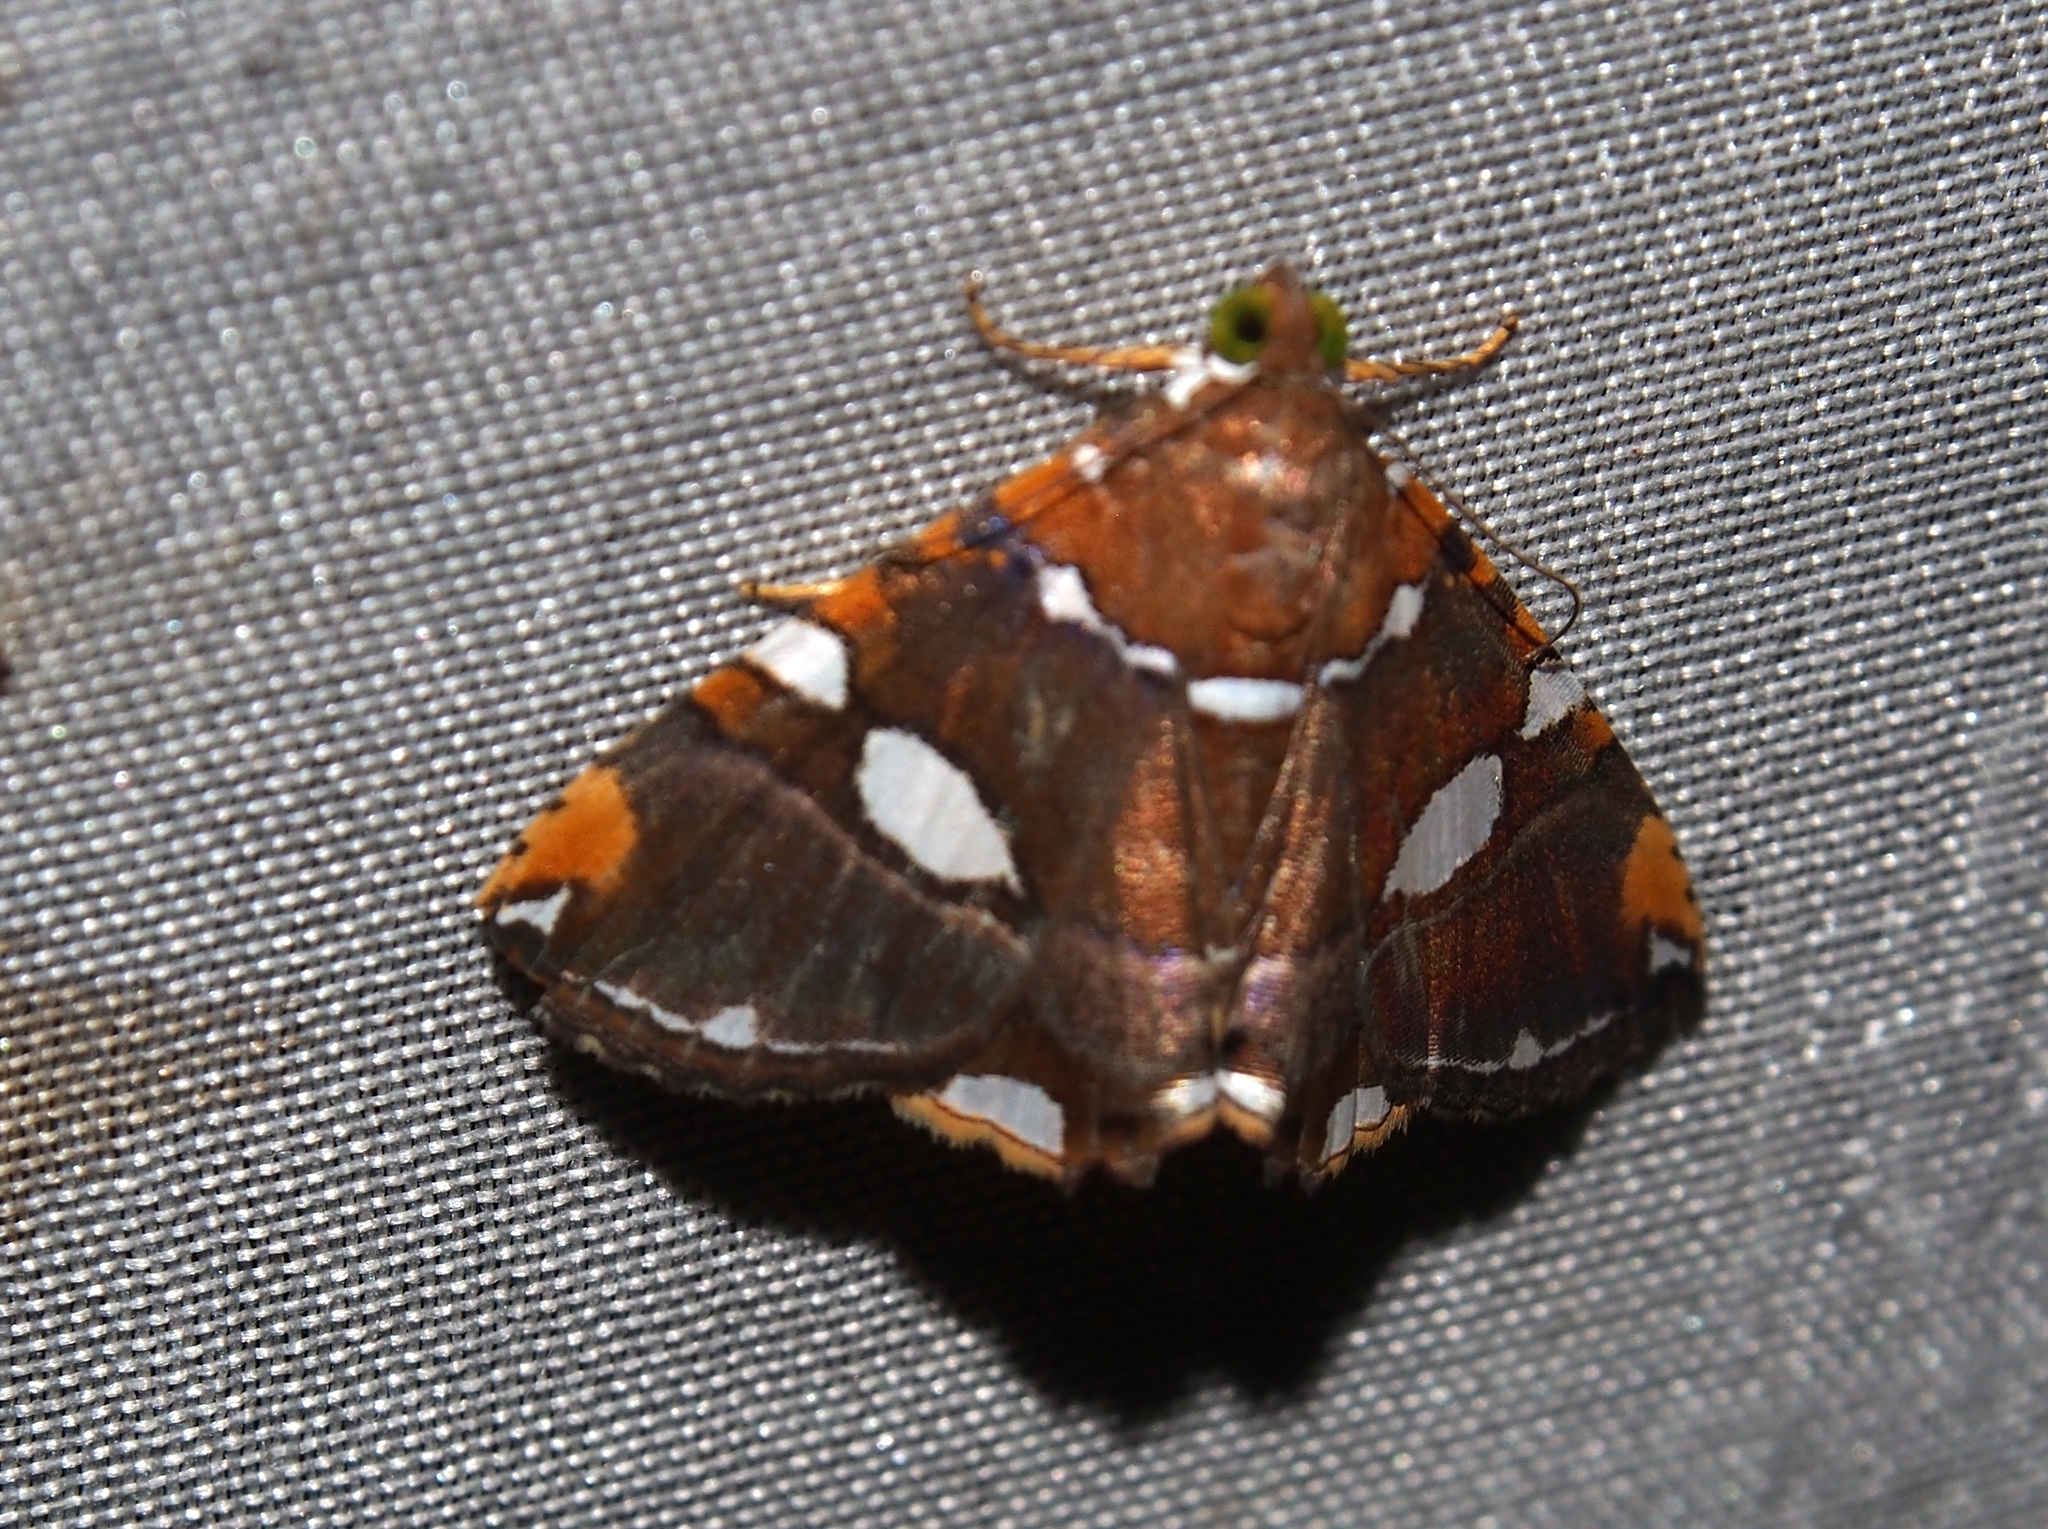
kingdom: Animalia
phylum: Arthropoda
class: Insecta
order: Lepidoptera
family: Erebidae
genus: Eulepidotis
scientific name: Eulepidotis guttata
